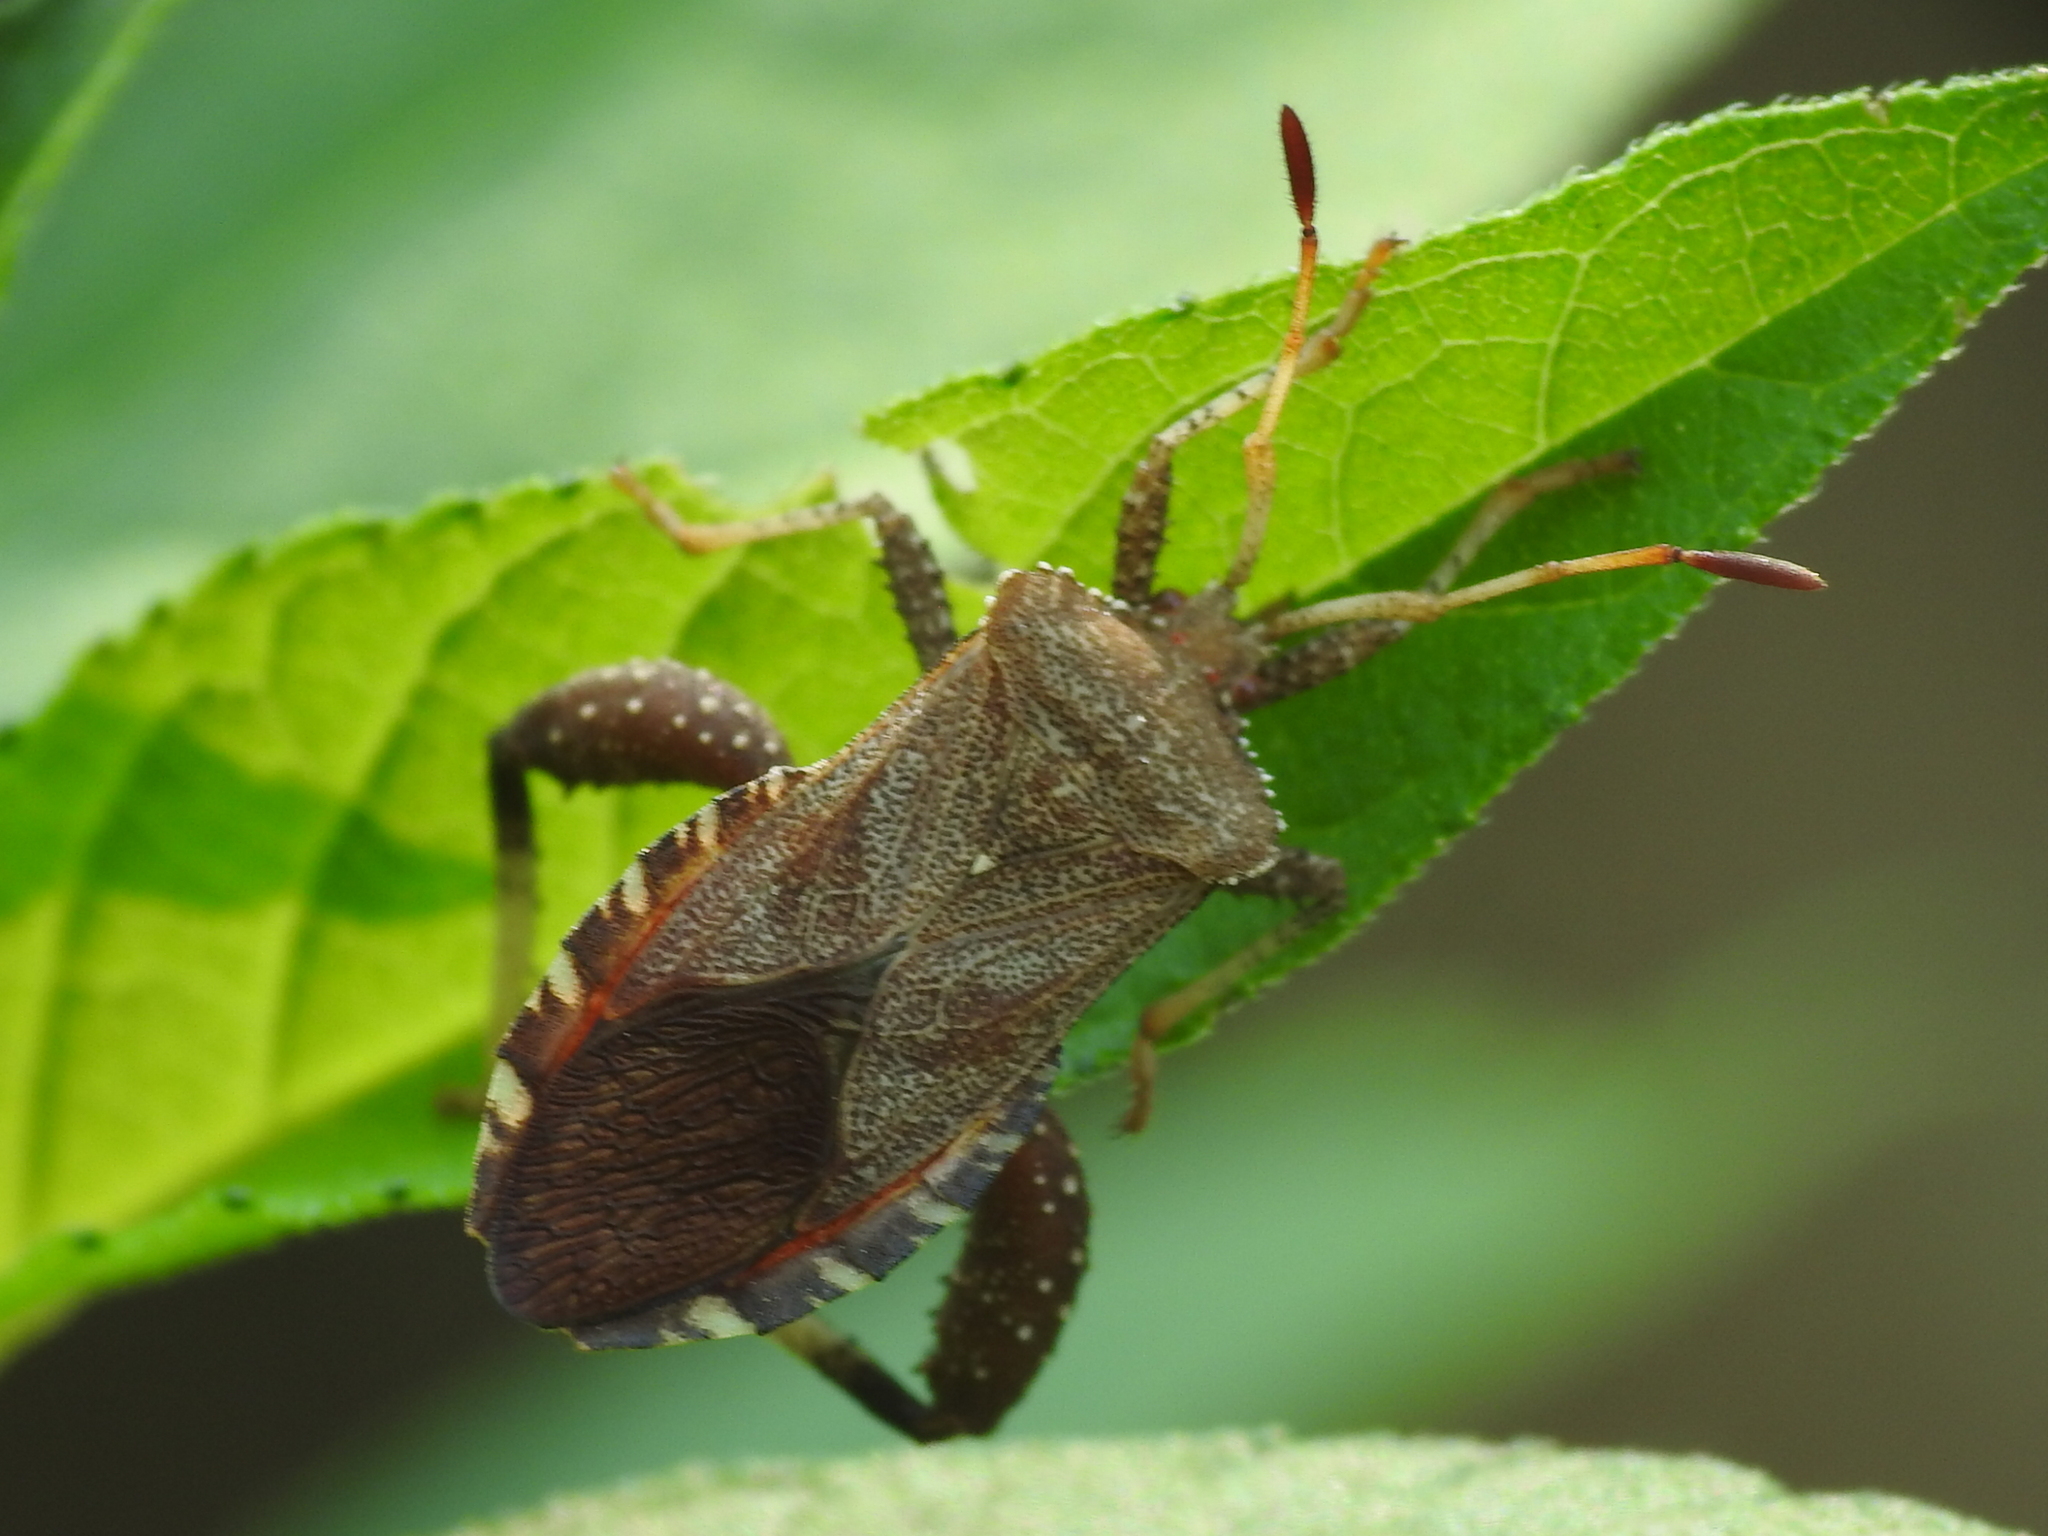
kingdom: Animalia
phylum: Arthropoda
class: Insecta
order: Hemiptera
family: Coreidae
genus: Euthochtha
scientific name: Euthochtha galeator
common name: Helmeted squash bug
